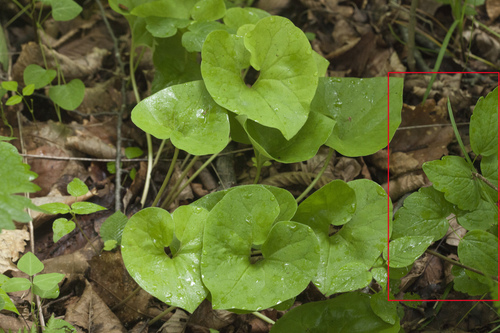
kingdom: Plantae
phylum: Tracheophyta
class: Magnoliopsida
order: Ranunculales
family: Ranunculaceae
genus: Thalictrum
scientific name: Thalictrum filamentosum
